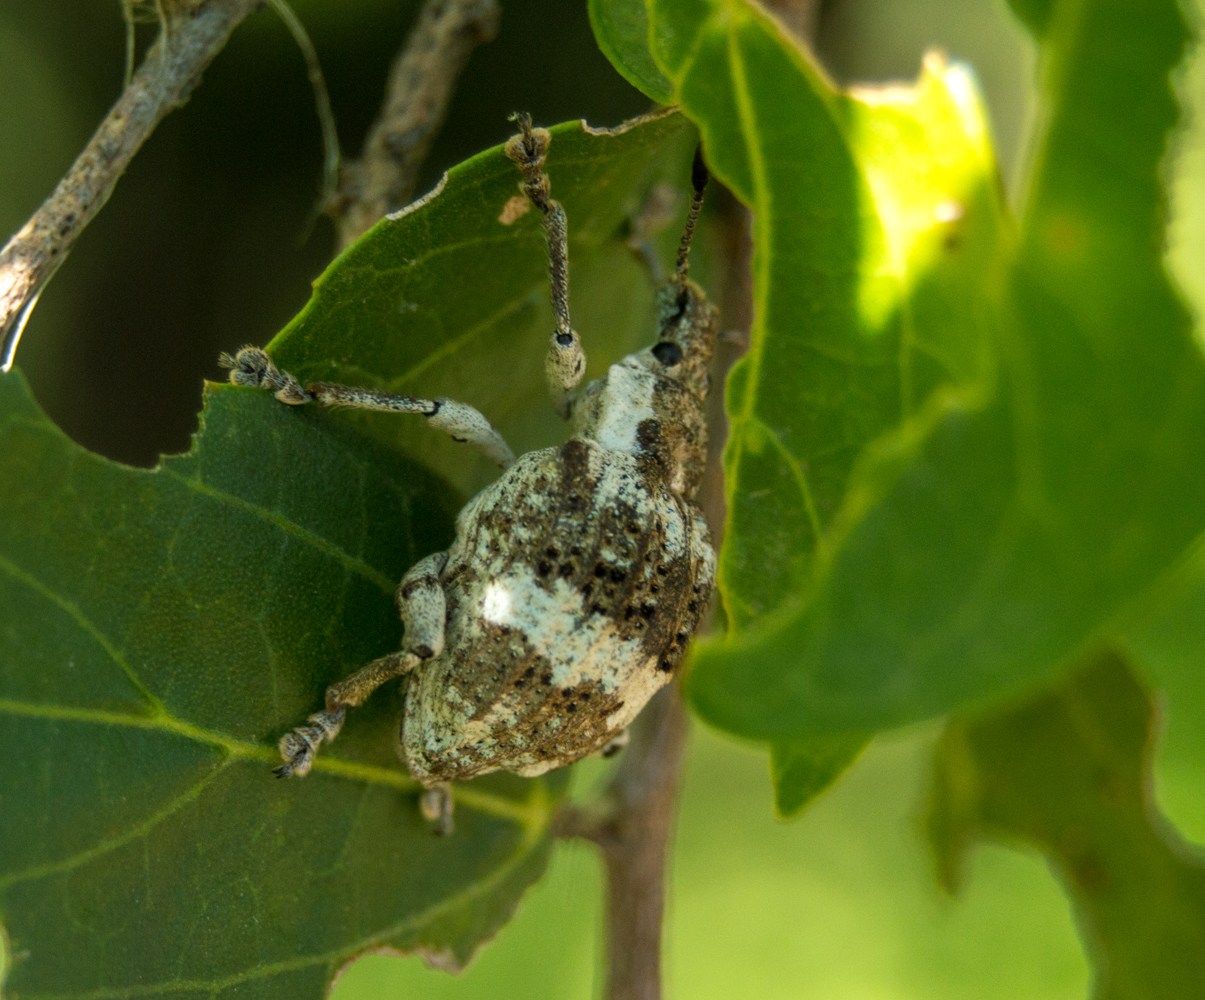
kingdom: Animalia
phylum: Arthropoda
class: Insecta
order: Coleoptera
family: Curculionidae
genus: Polyteles
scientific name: Polyteles guerini
